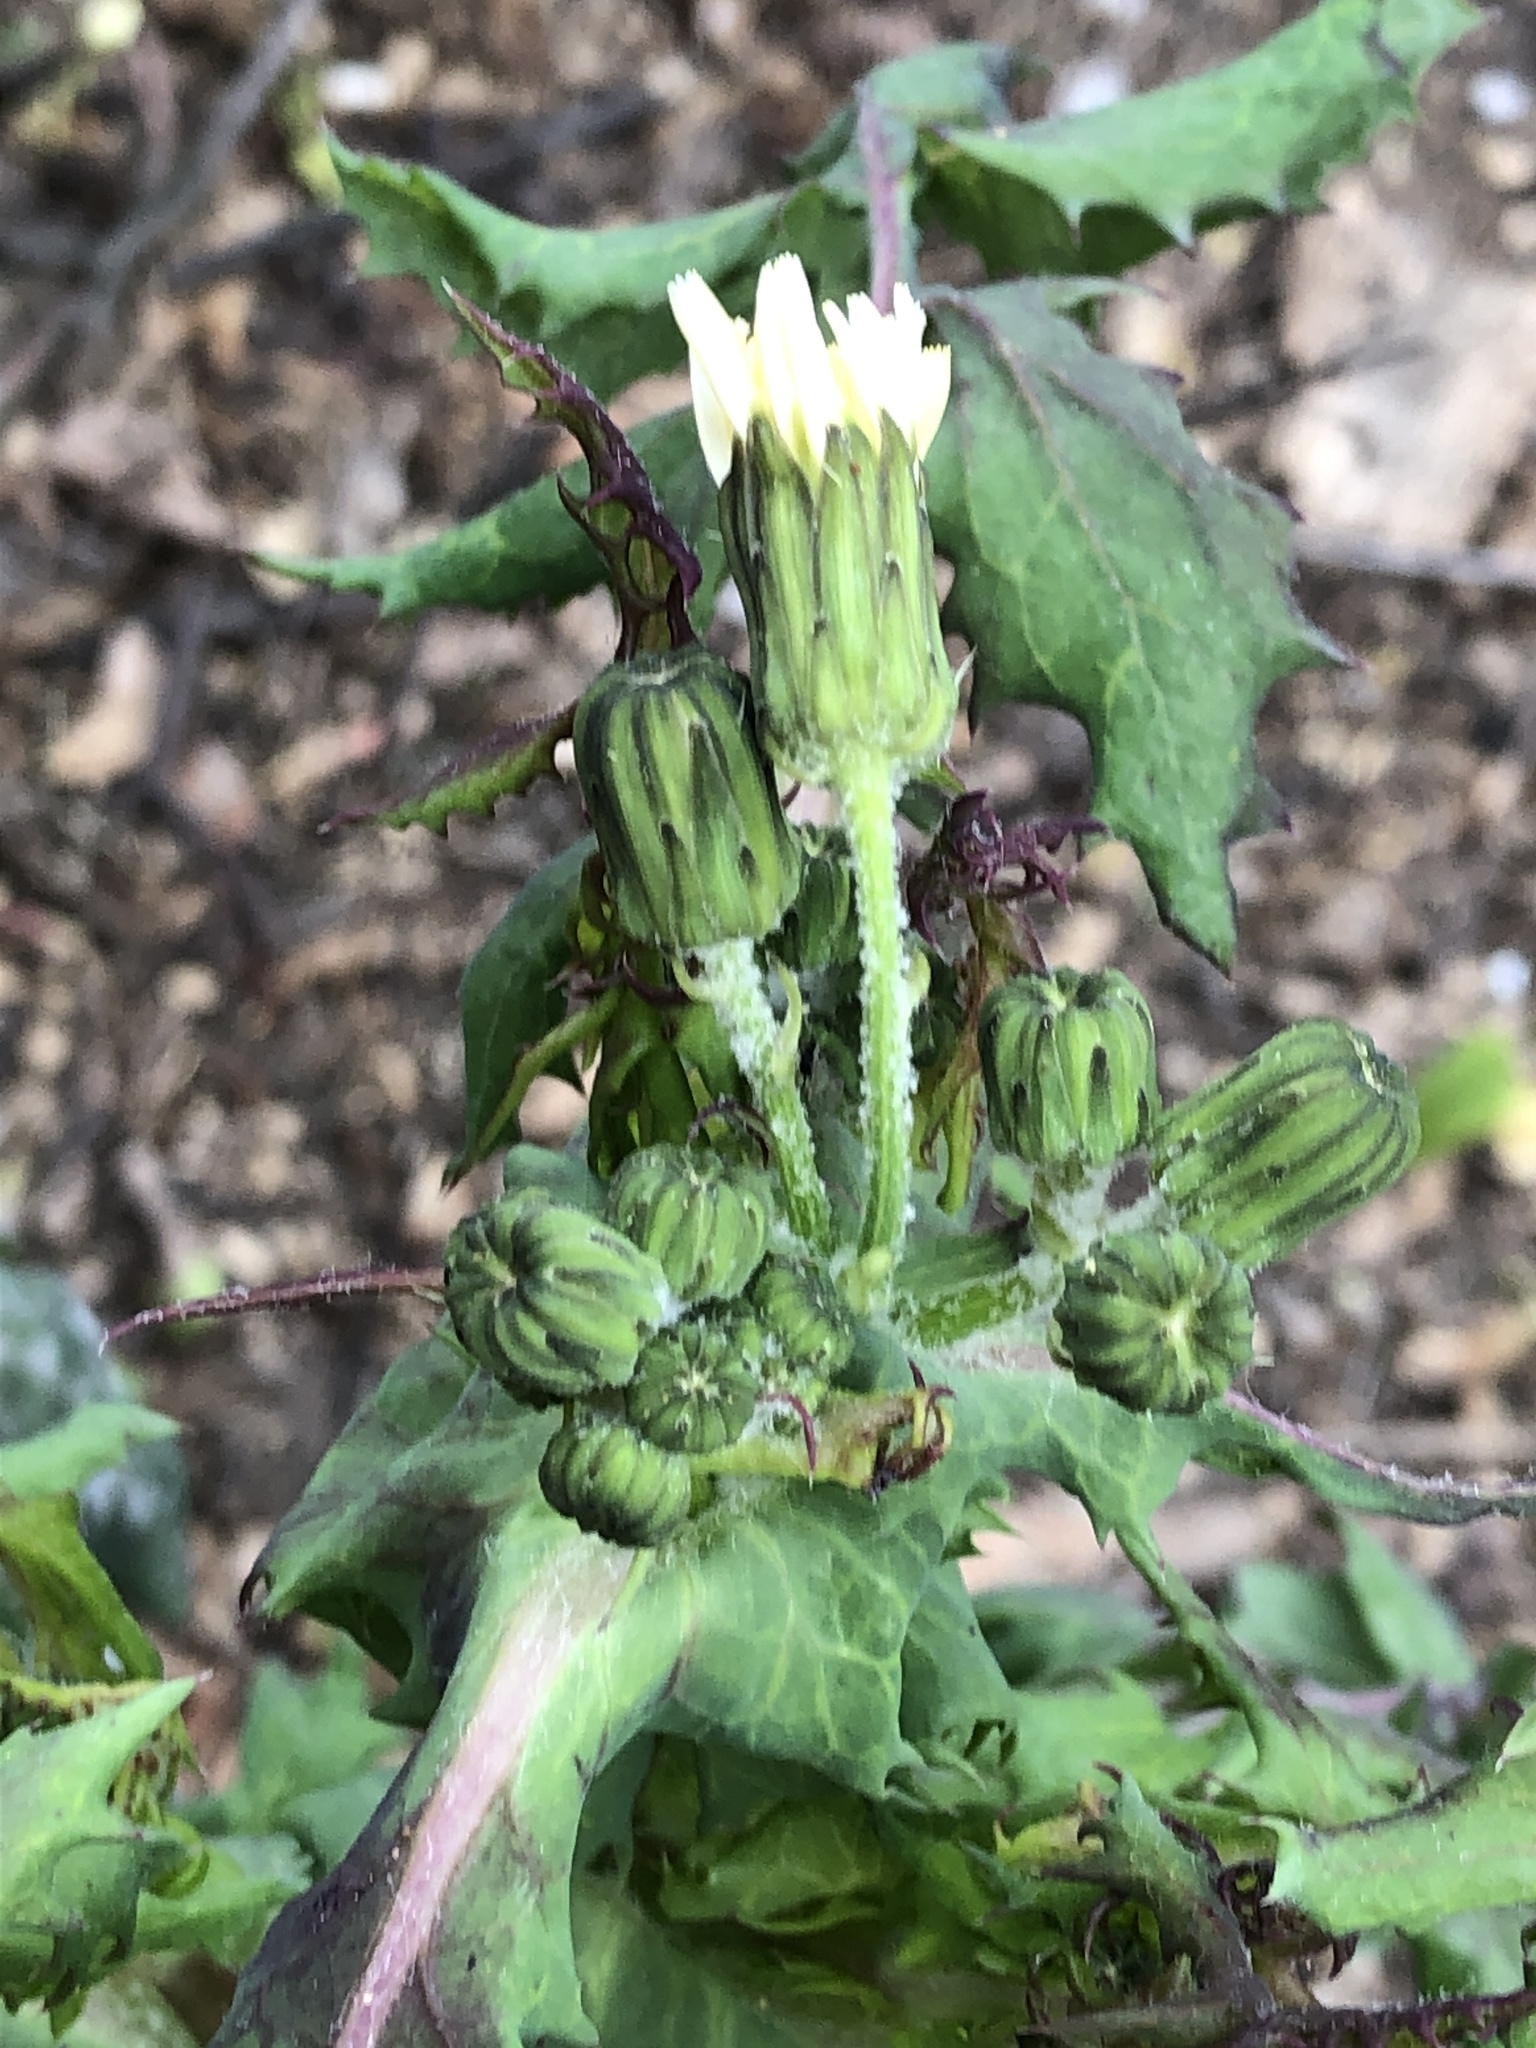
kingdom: Plantae
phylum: Tracheophyta
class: Magnoliopsida
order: Asterales
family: Asteraceae
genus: Sonchus
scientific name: Sonchus oleraceus
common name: Common sowthistle
